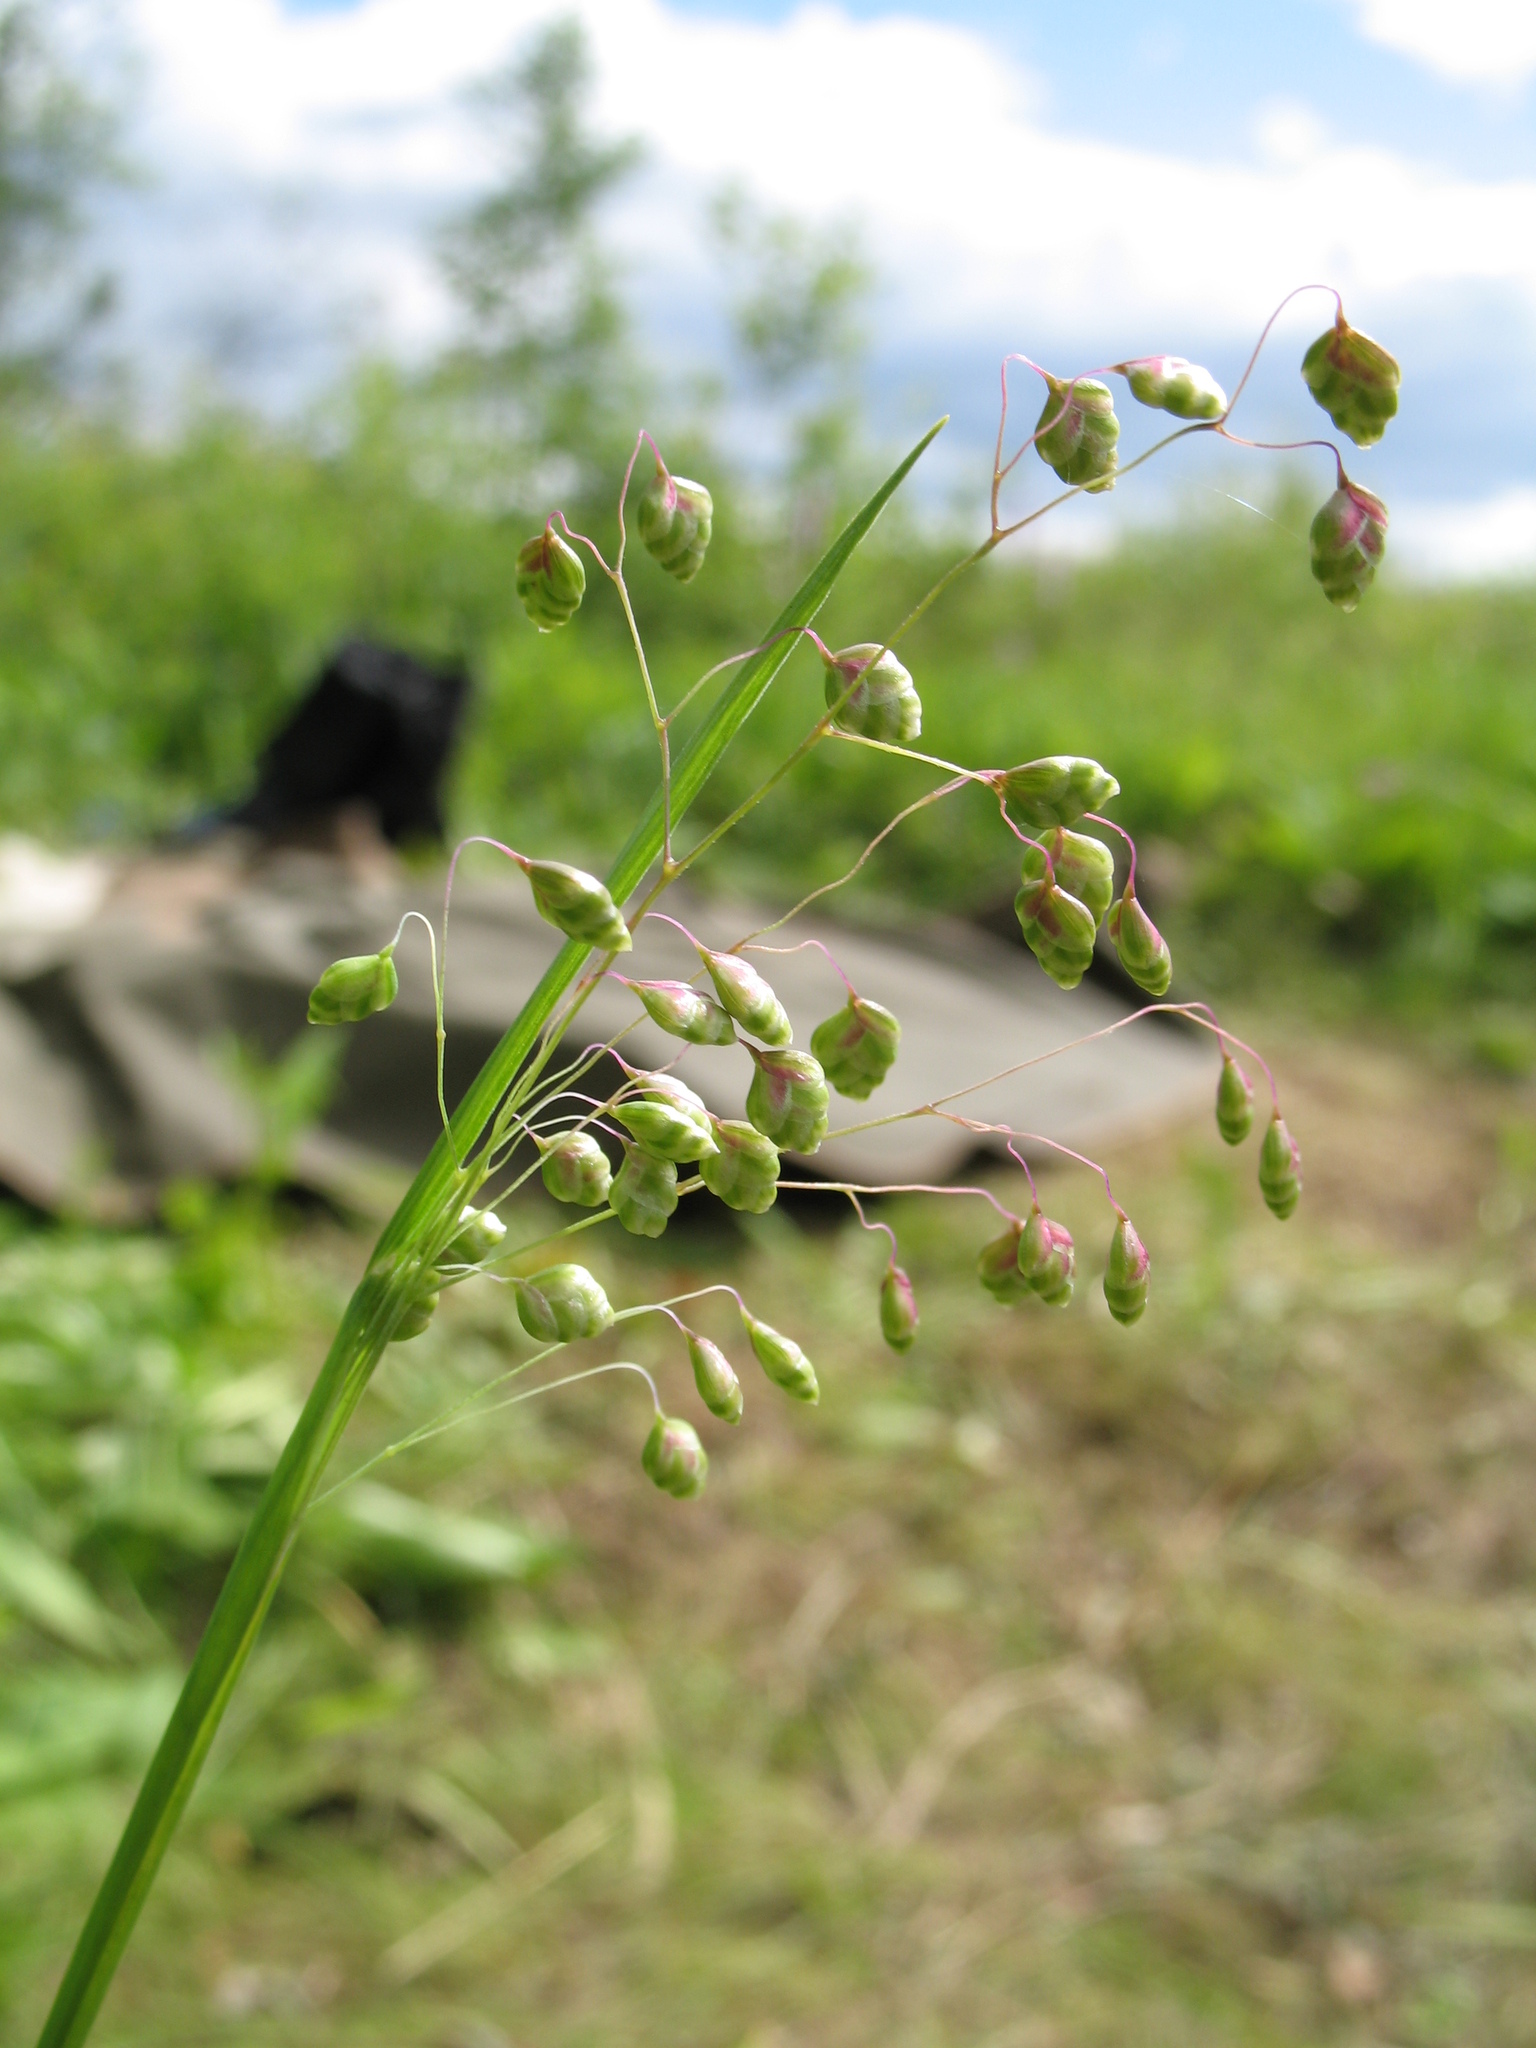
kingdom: Plantae
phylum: Tracheophyta
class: Liliopsida
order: Poales
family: Poaceae
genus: Briza
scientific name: Briza media
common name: Quaking grass
